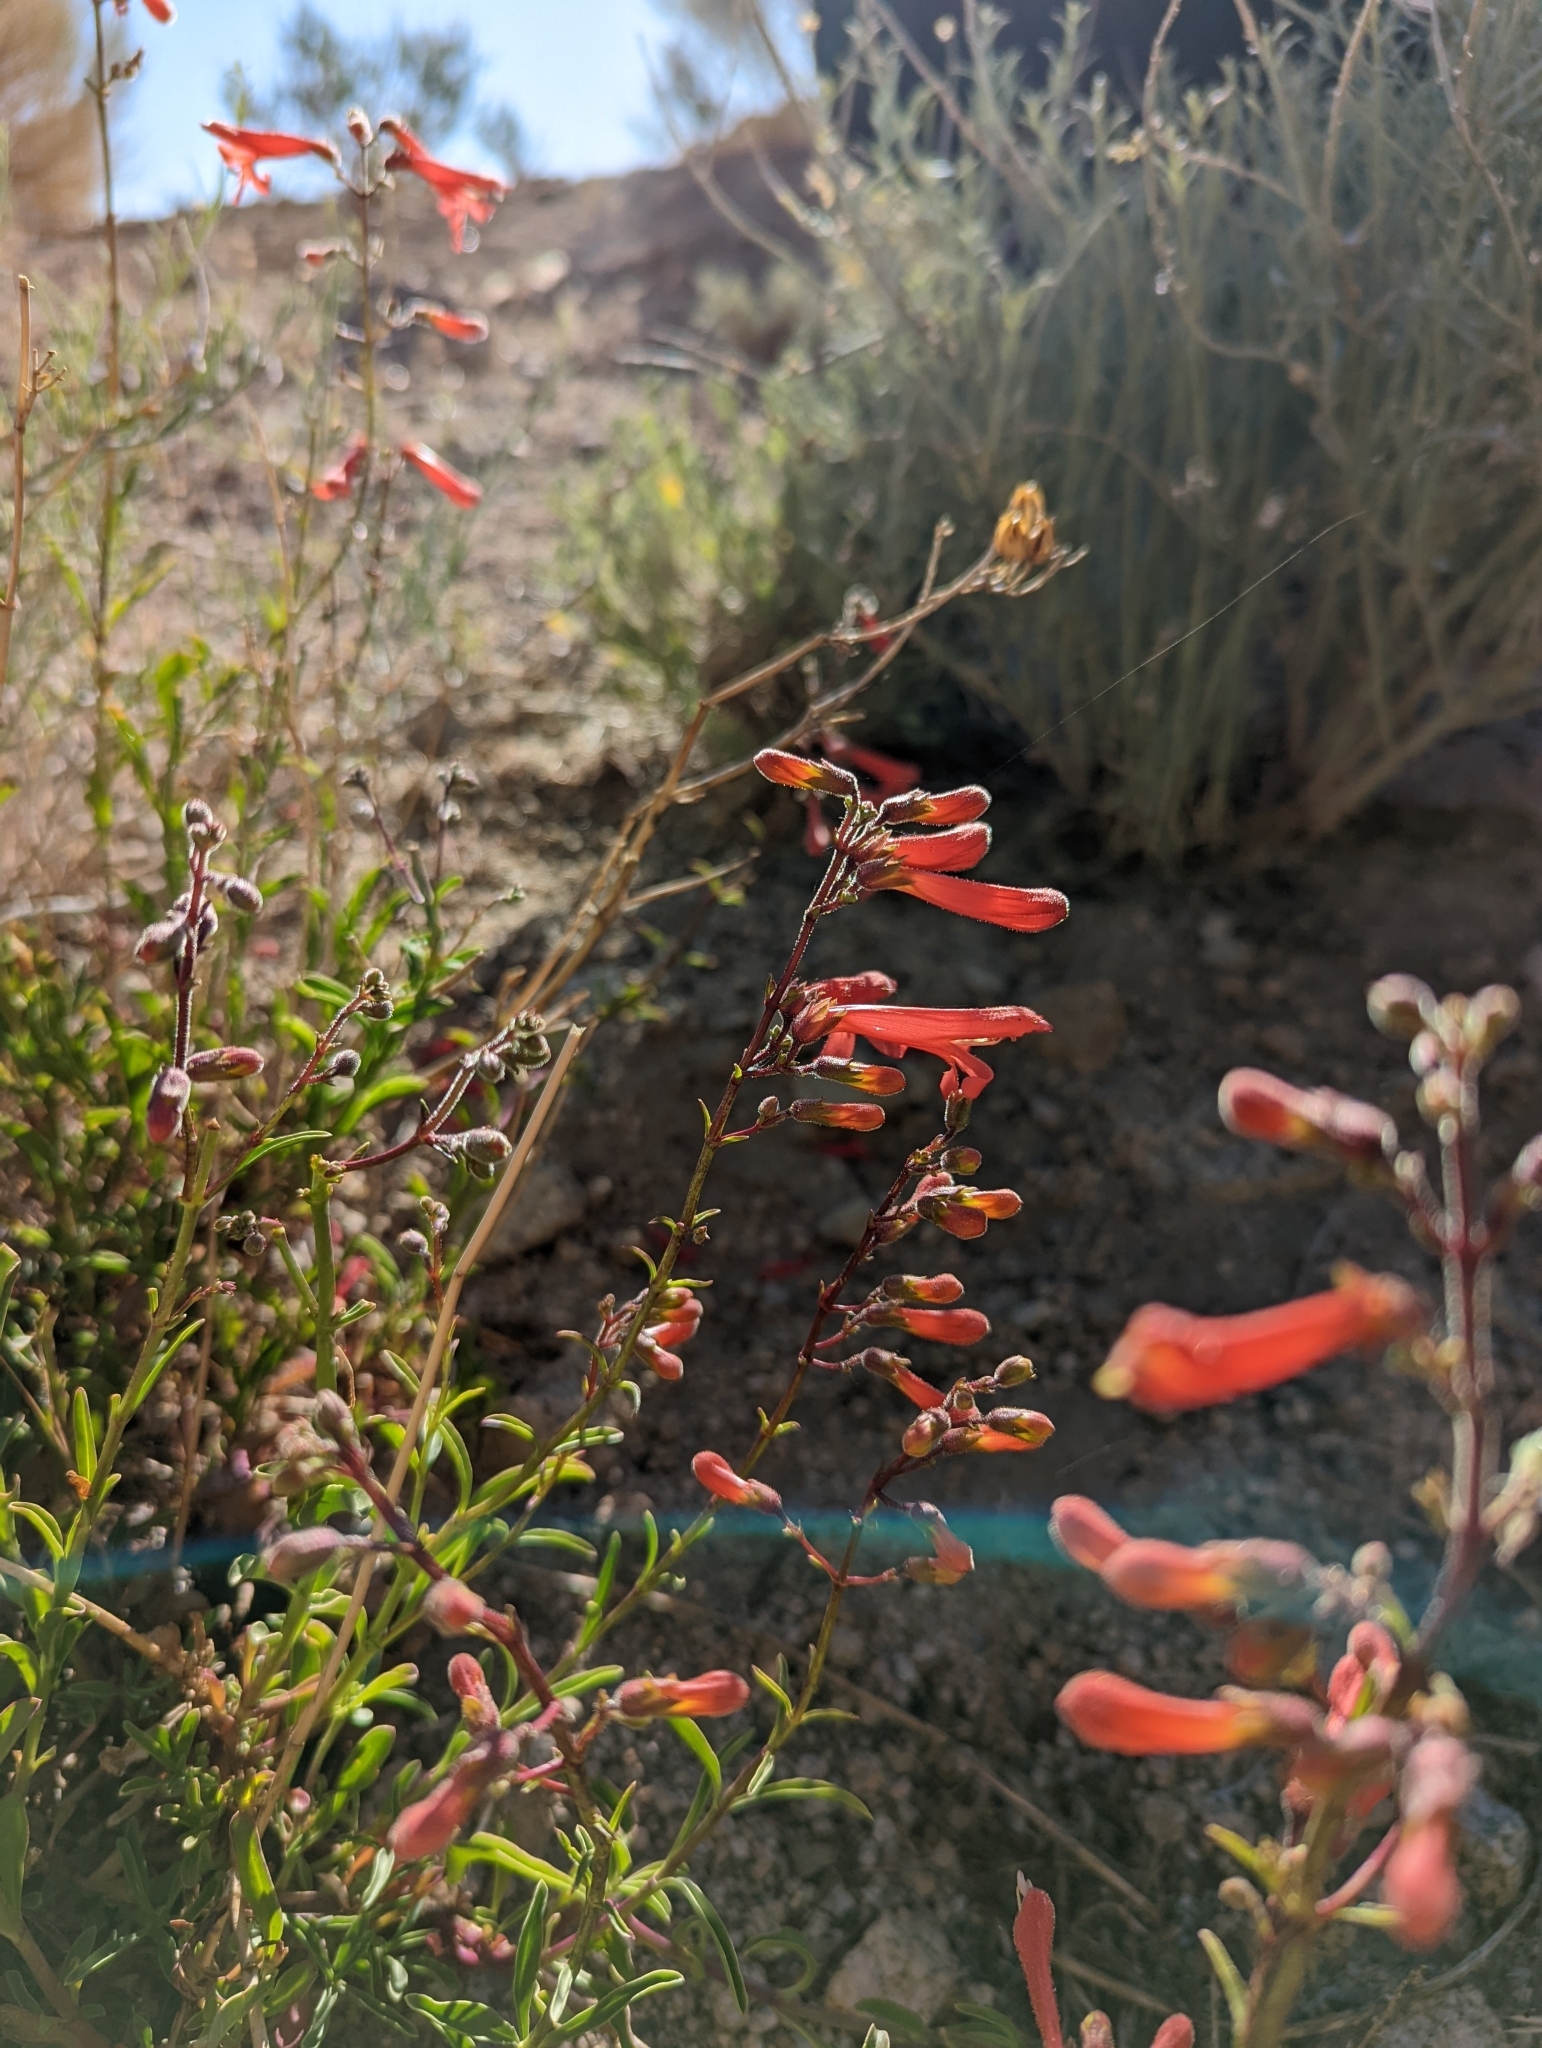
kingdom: Plantae
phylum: Tracheophyta
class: Magnoliopsida
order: Lamiales
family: Plantaginaceae
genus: Penstemon
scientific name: Penstemon rostriflorus
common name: Bridges's penstemon
